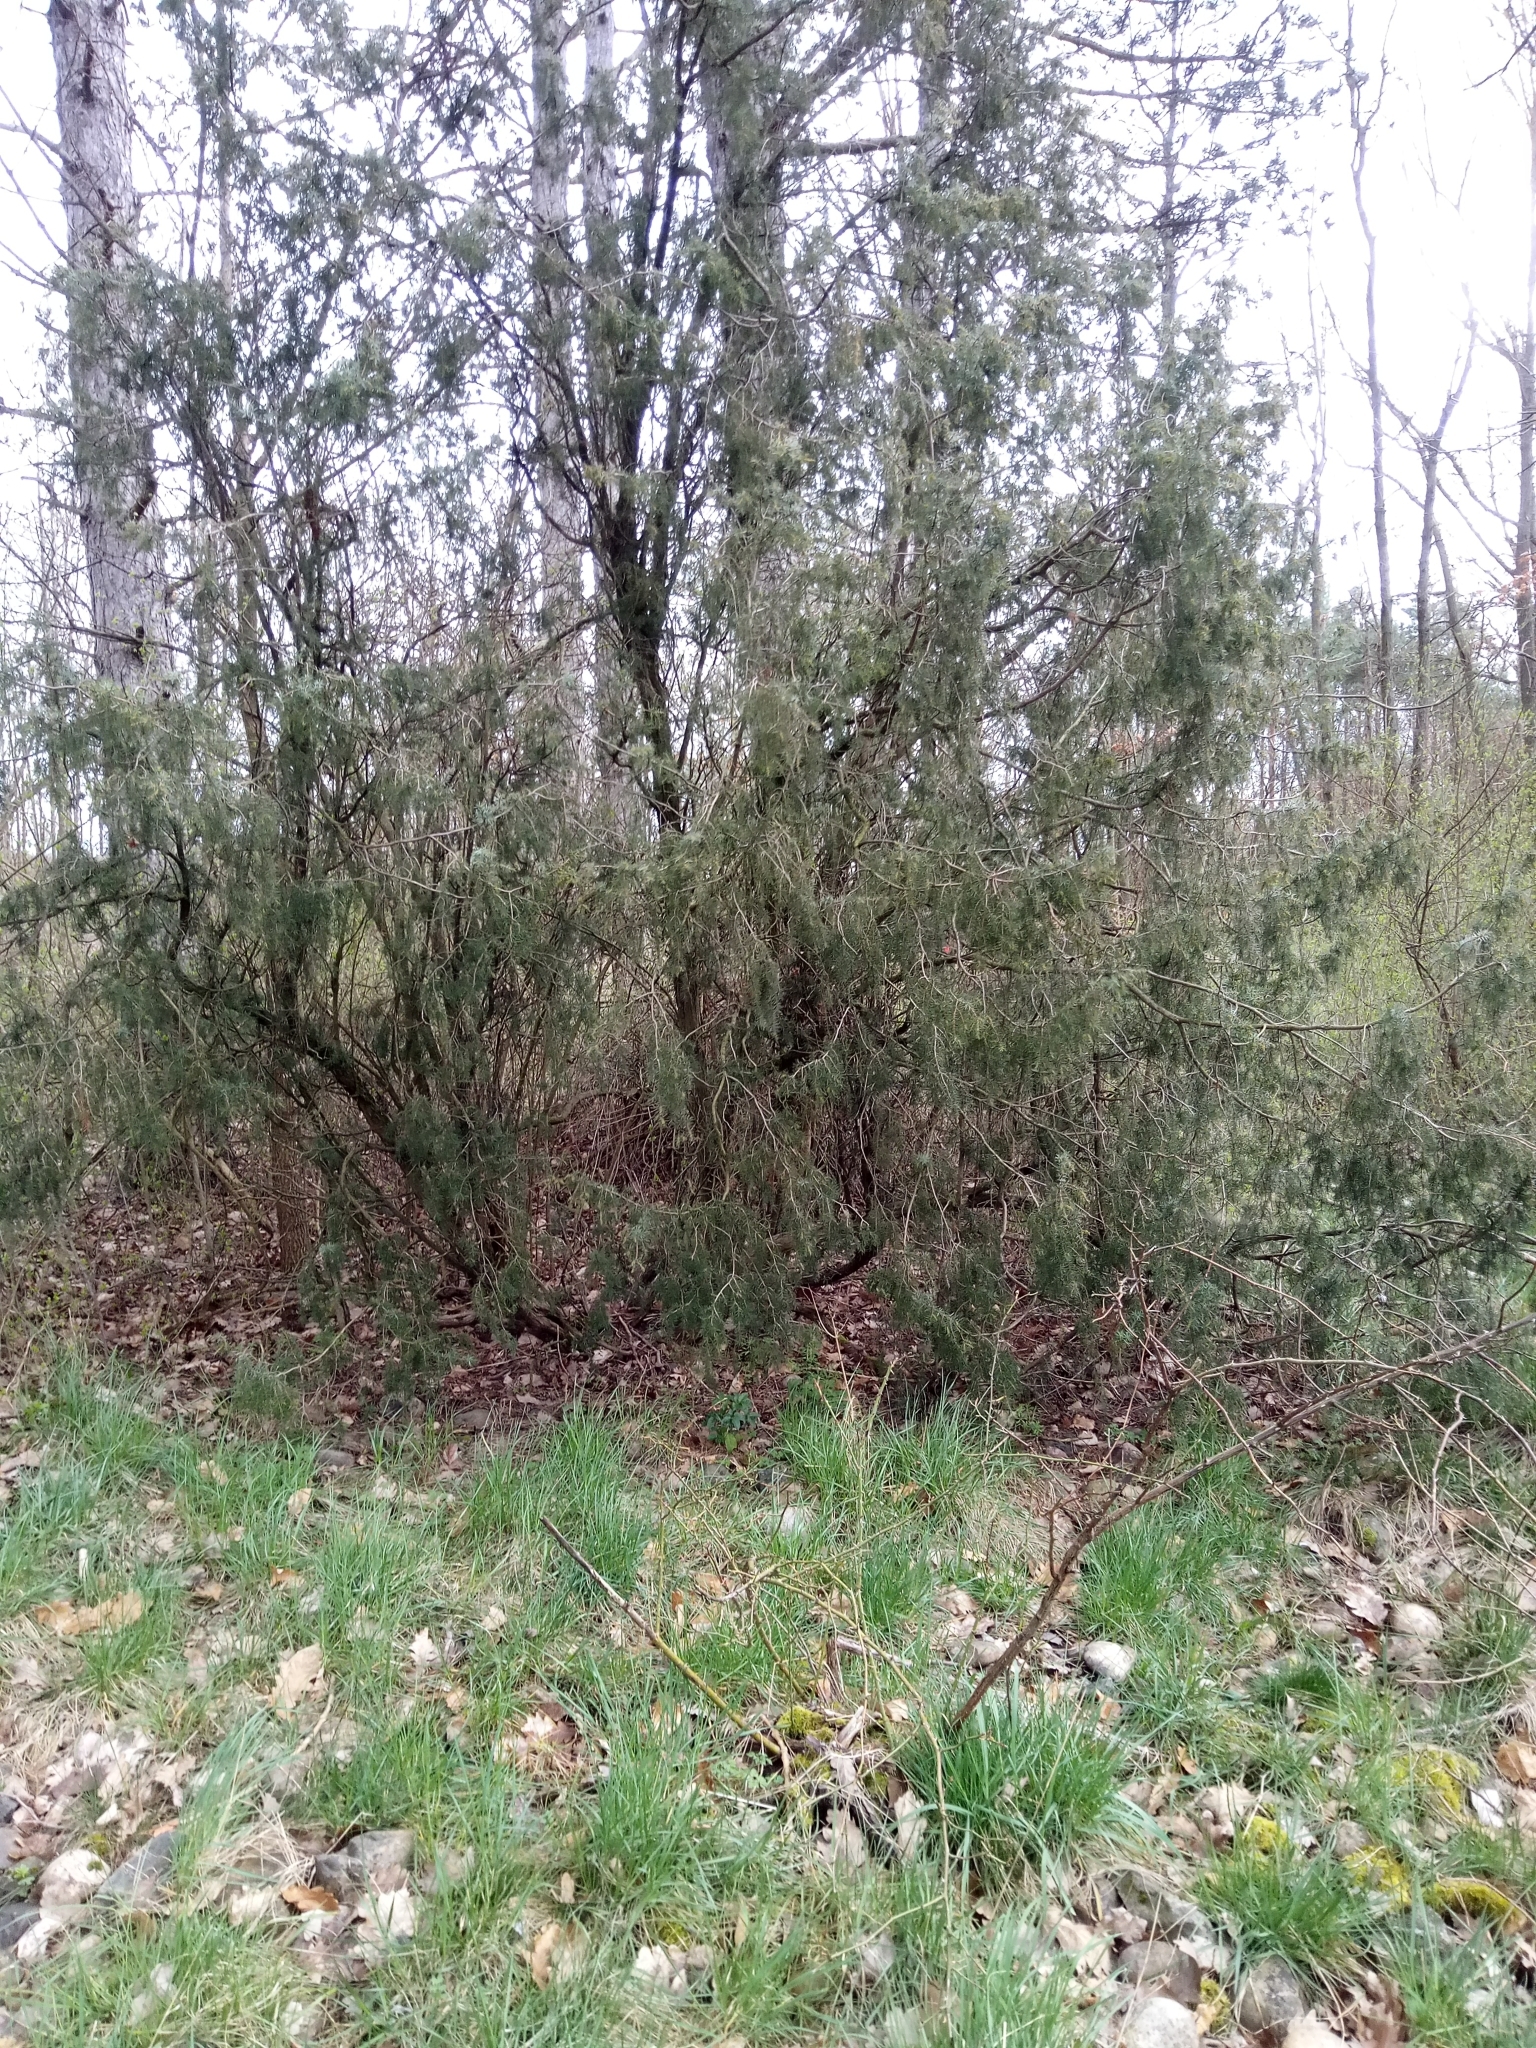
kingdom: Plantae
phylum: Tracheophyta
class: Pinopsida
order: Pinales
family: Cupressaceae
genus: Juniperus
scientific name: Juniperus communis
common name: Common juniper
